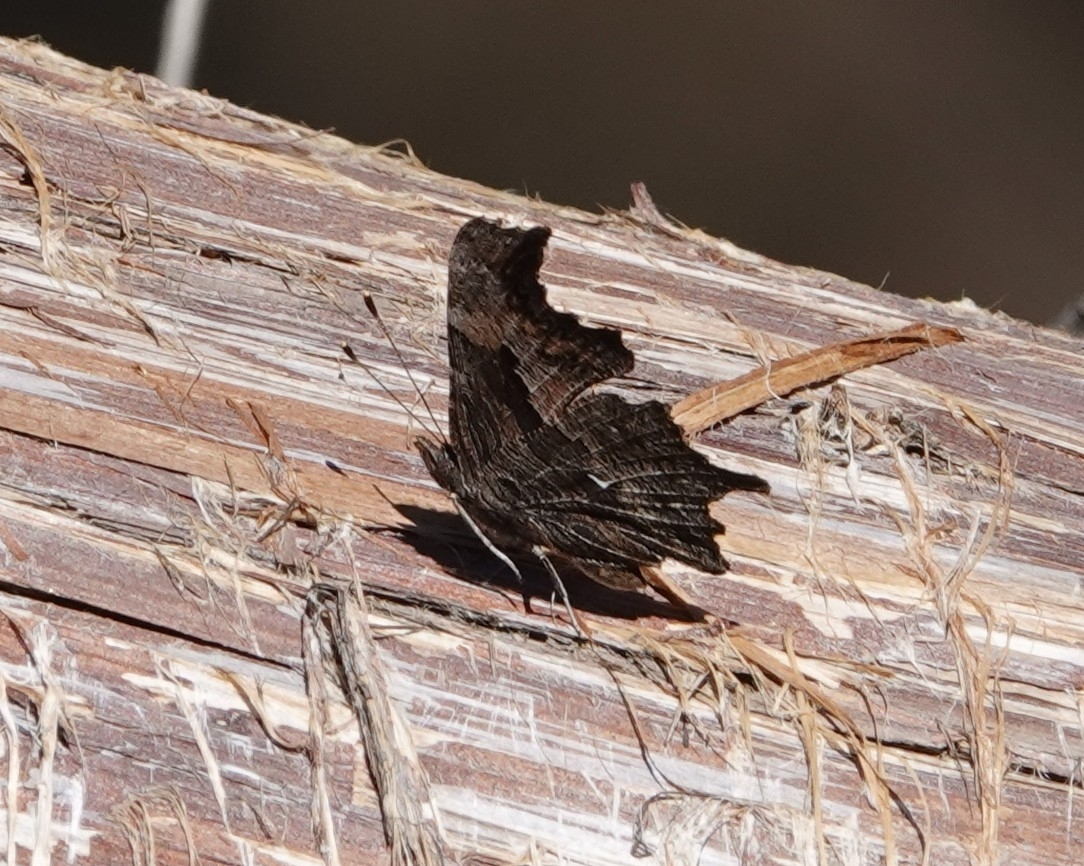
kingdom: Animalia
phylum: Arthropoda
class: Insecta
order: Lepidoptera
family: Nymphalidae
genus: Polygonia
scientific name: Polygonia progne
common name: Gray comma
